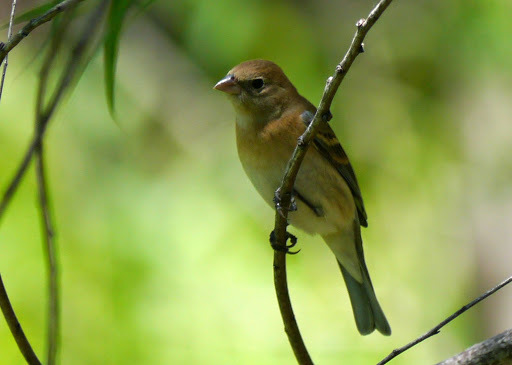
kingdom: Animalia
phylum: Chordata
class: Aves
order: Passeriformes
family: Cardinalidae
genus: Passerina
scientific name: Passerina cyanea
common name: Indigo bunting
